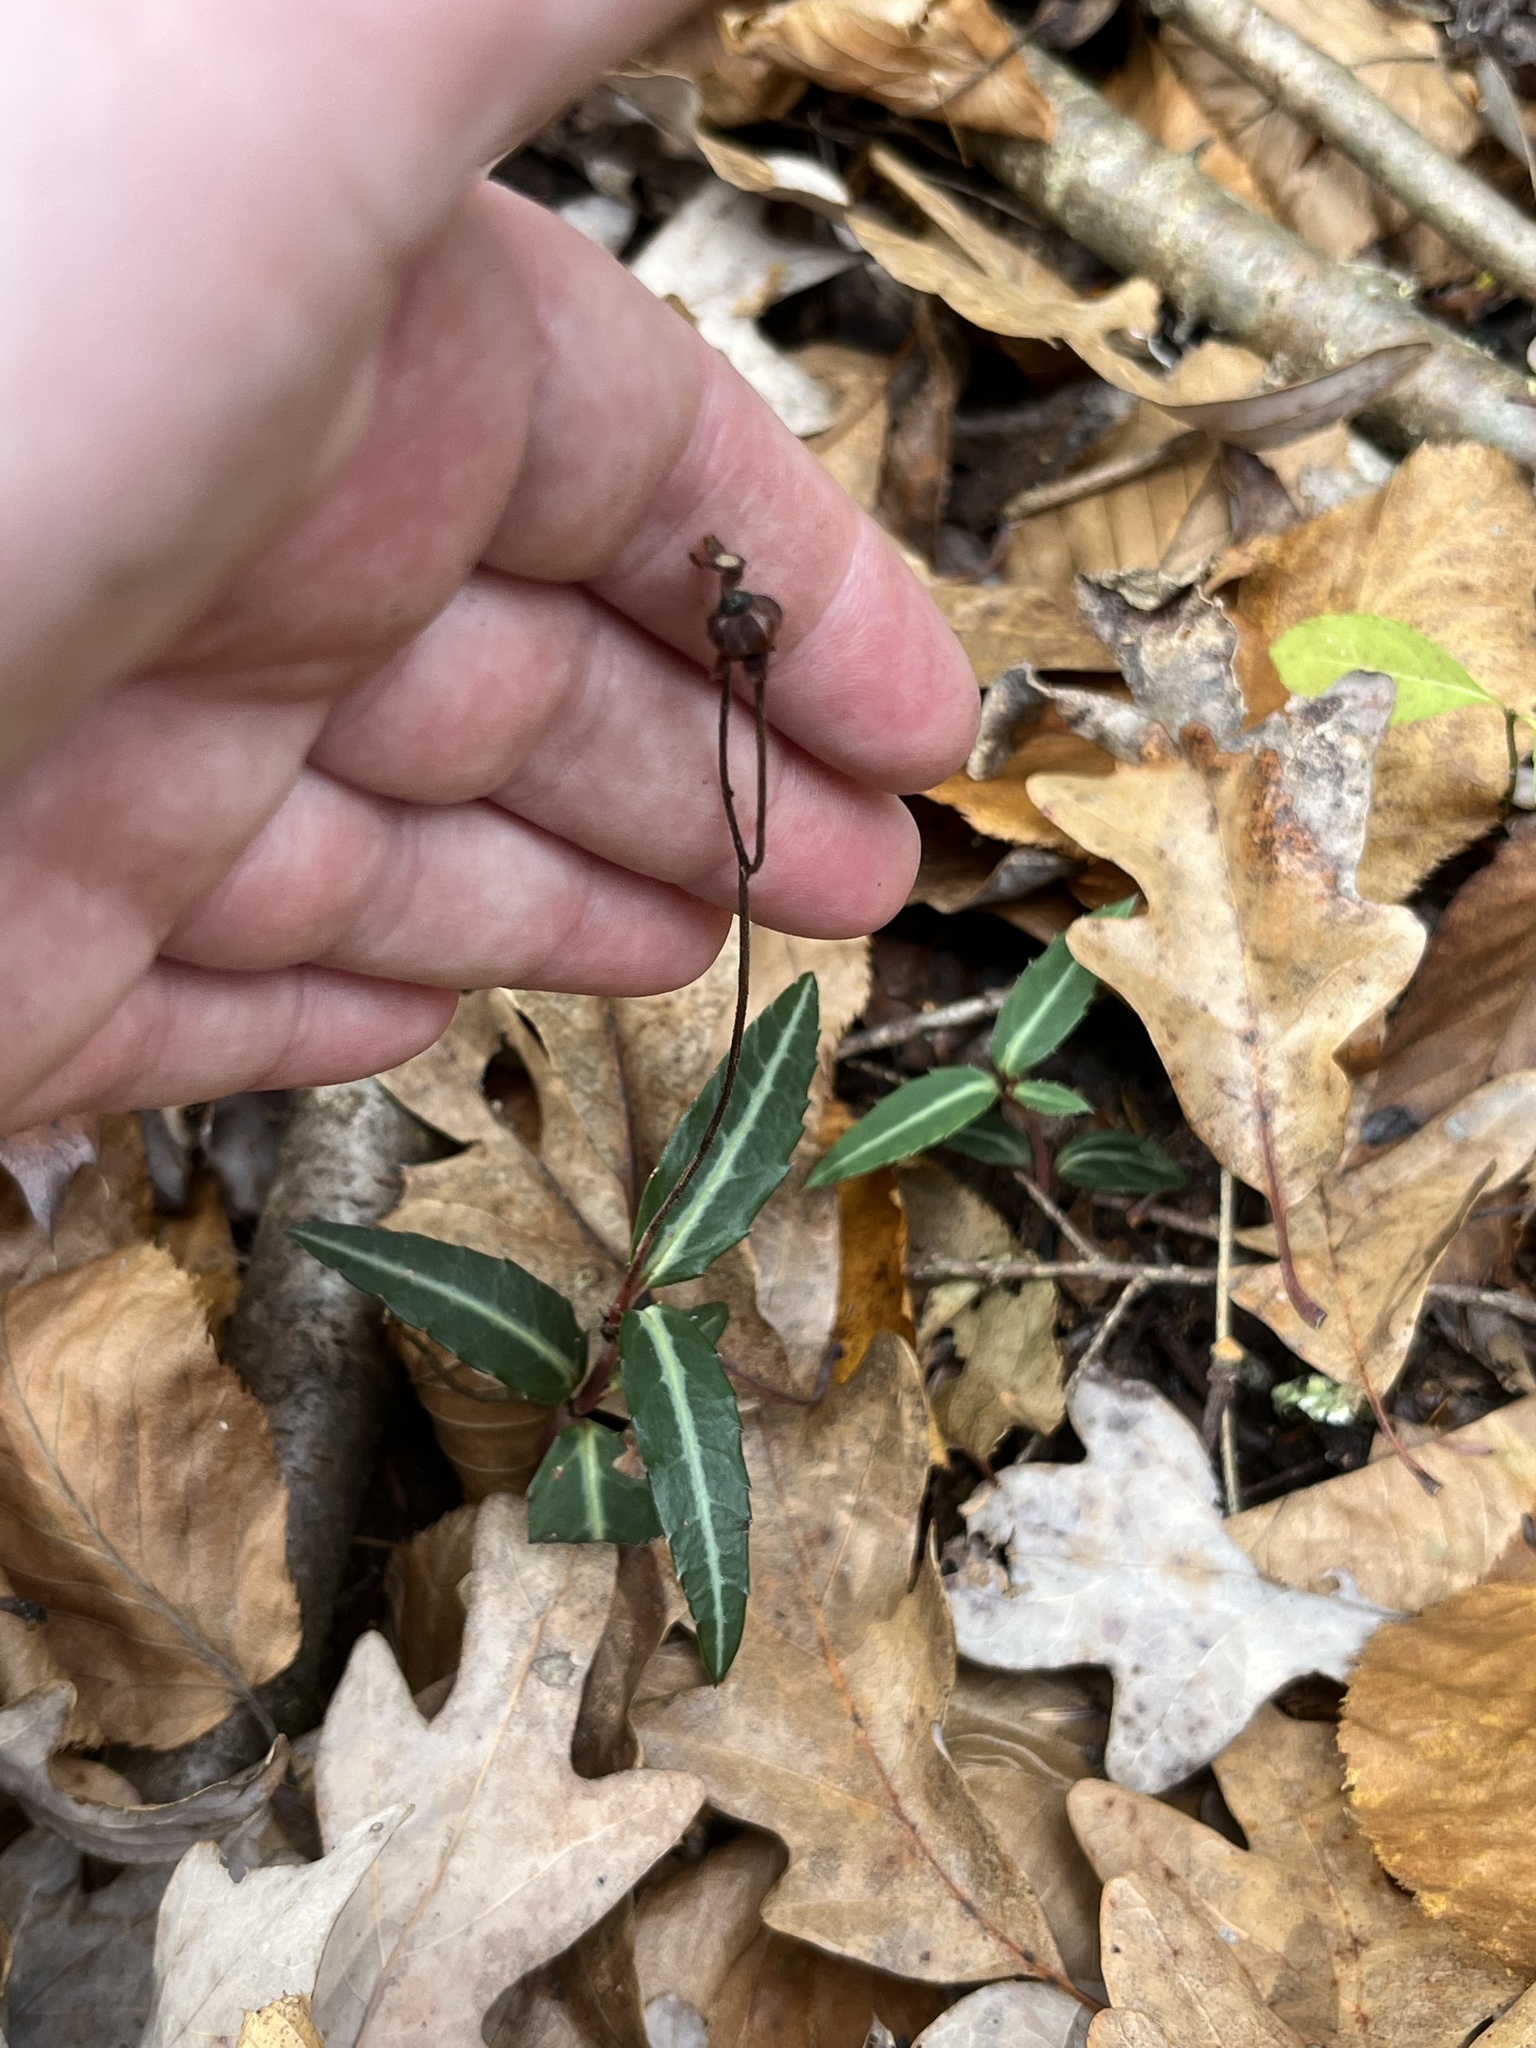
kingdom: Plantae
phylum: Tracheophyta
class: Magnoliopsida
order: Ericales
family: Ericaceae
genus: Chimaphila
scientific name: Chimaphila maculata
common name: Spotted pipsissewa
